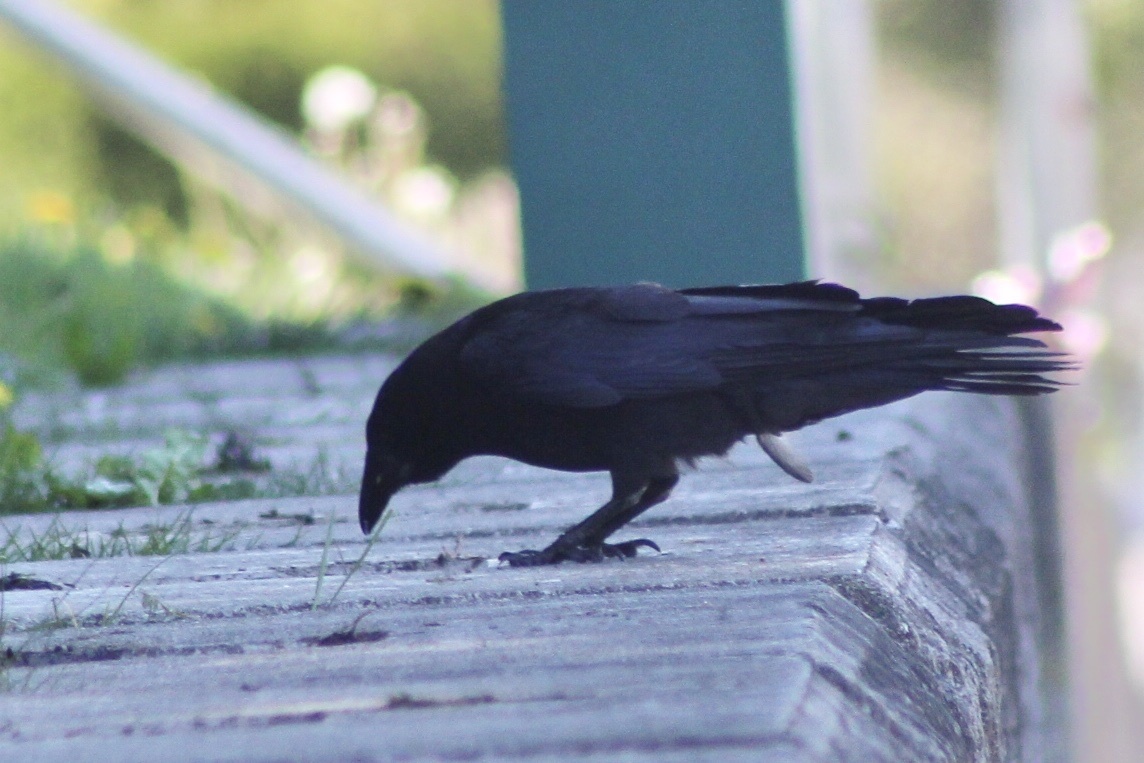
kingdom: Animalia
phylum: Chordata
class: Aves
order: Passeriformes
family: Corvidae
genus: Corvus
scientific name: Corvus brachyrhynchos
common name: American crow
